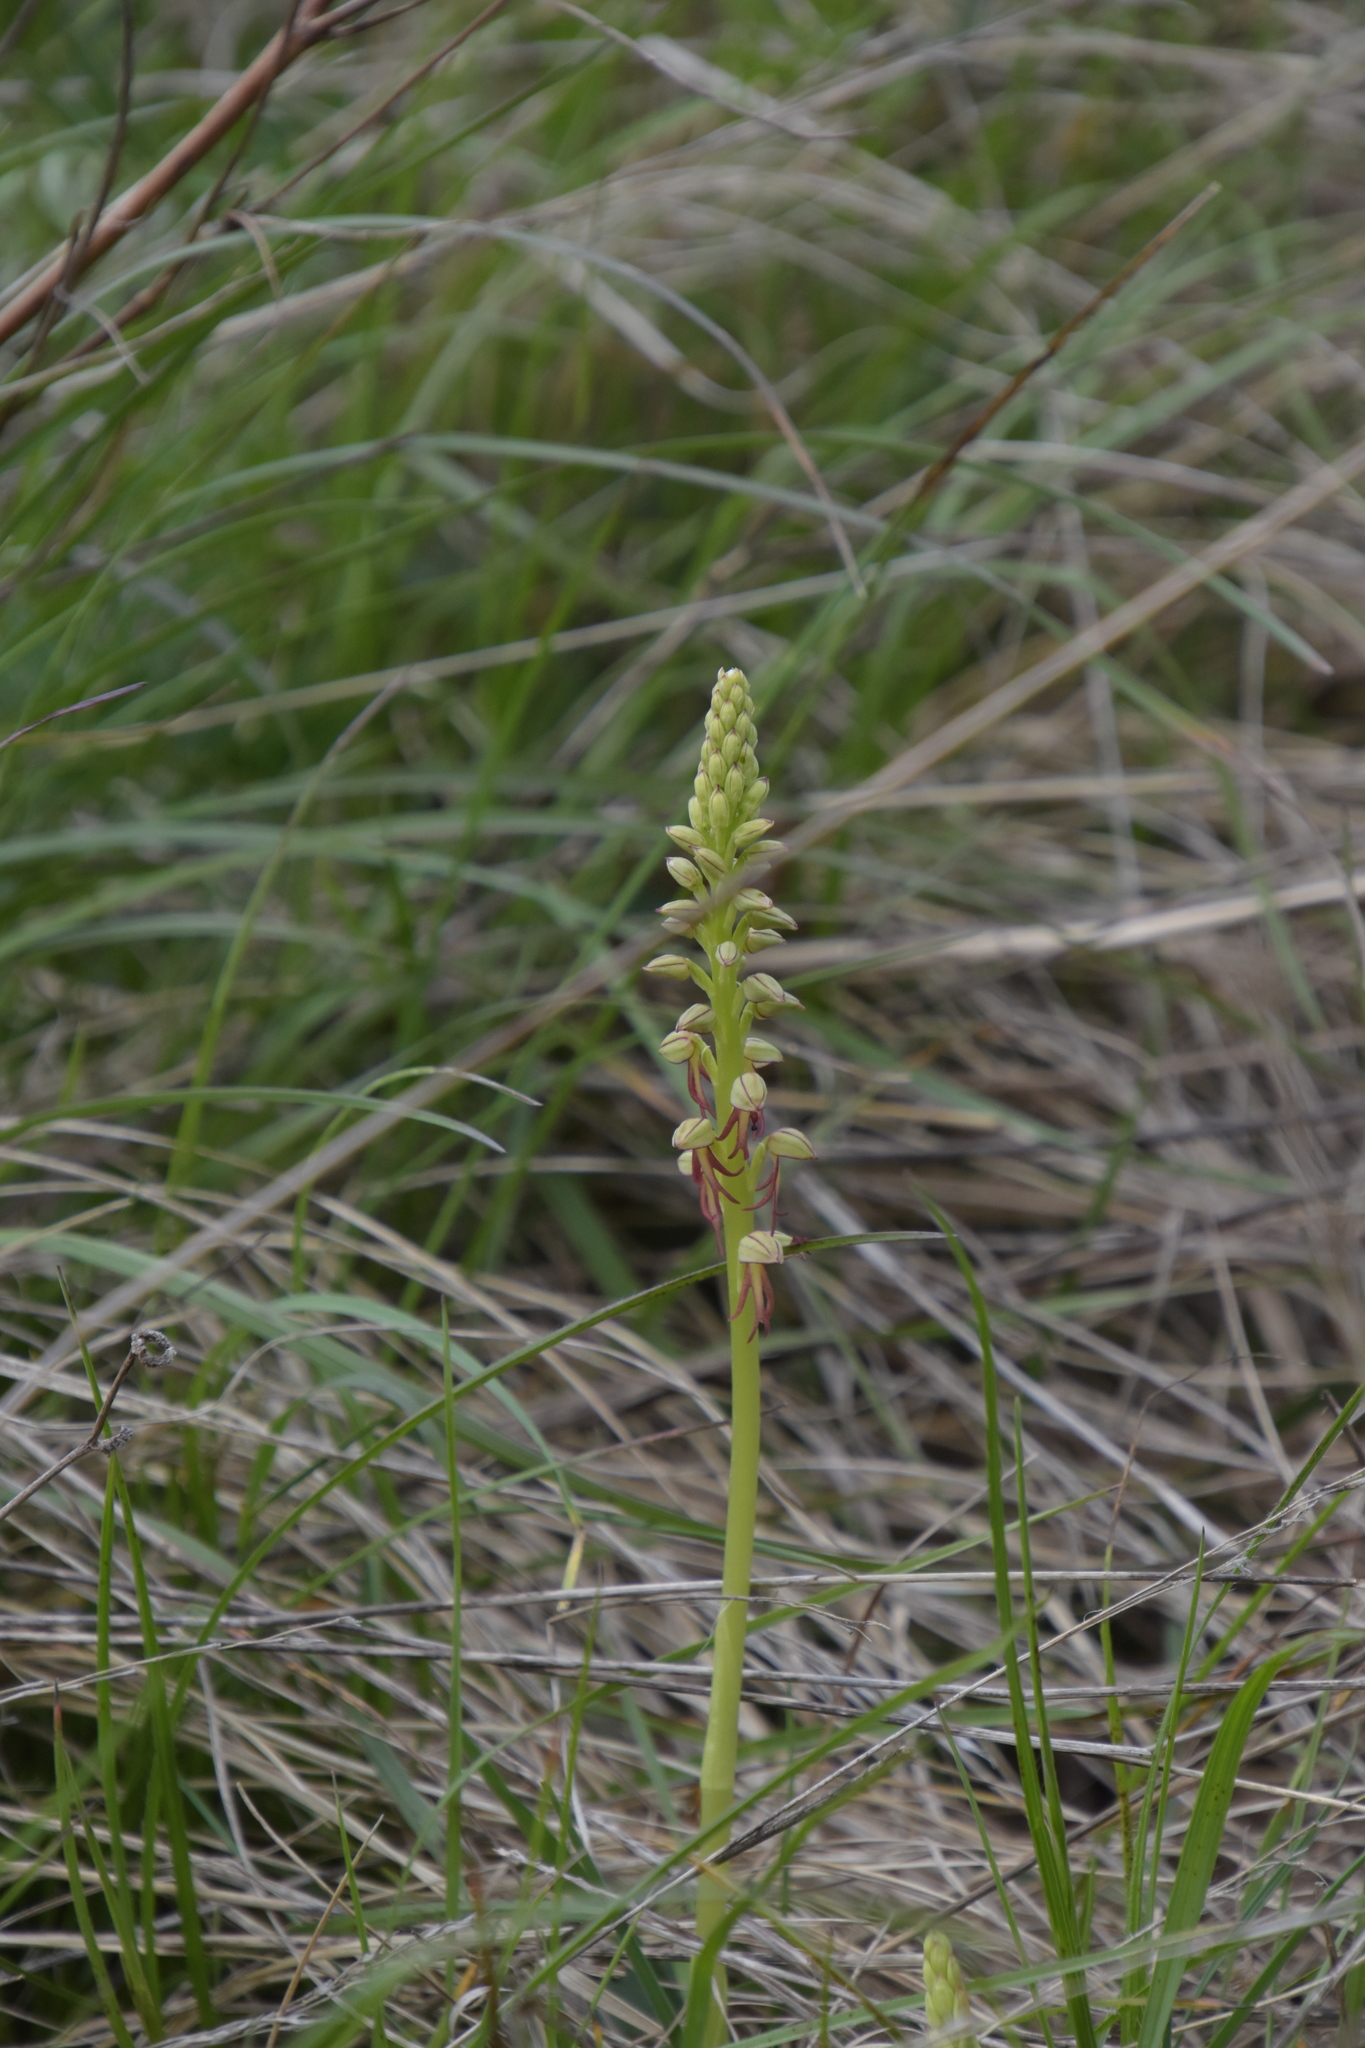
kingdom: Plantae
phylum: Tracheophyta
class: Liliopsida
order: Asparagales
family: Orchidaceae
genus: Orchis
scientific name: Orchis anthropophora
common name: Man orchid
